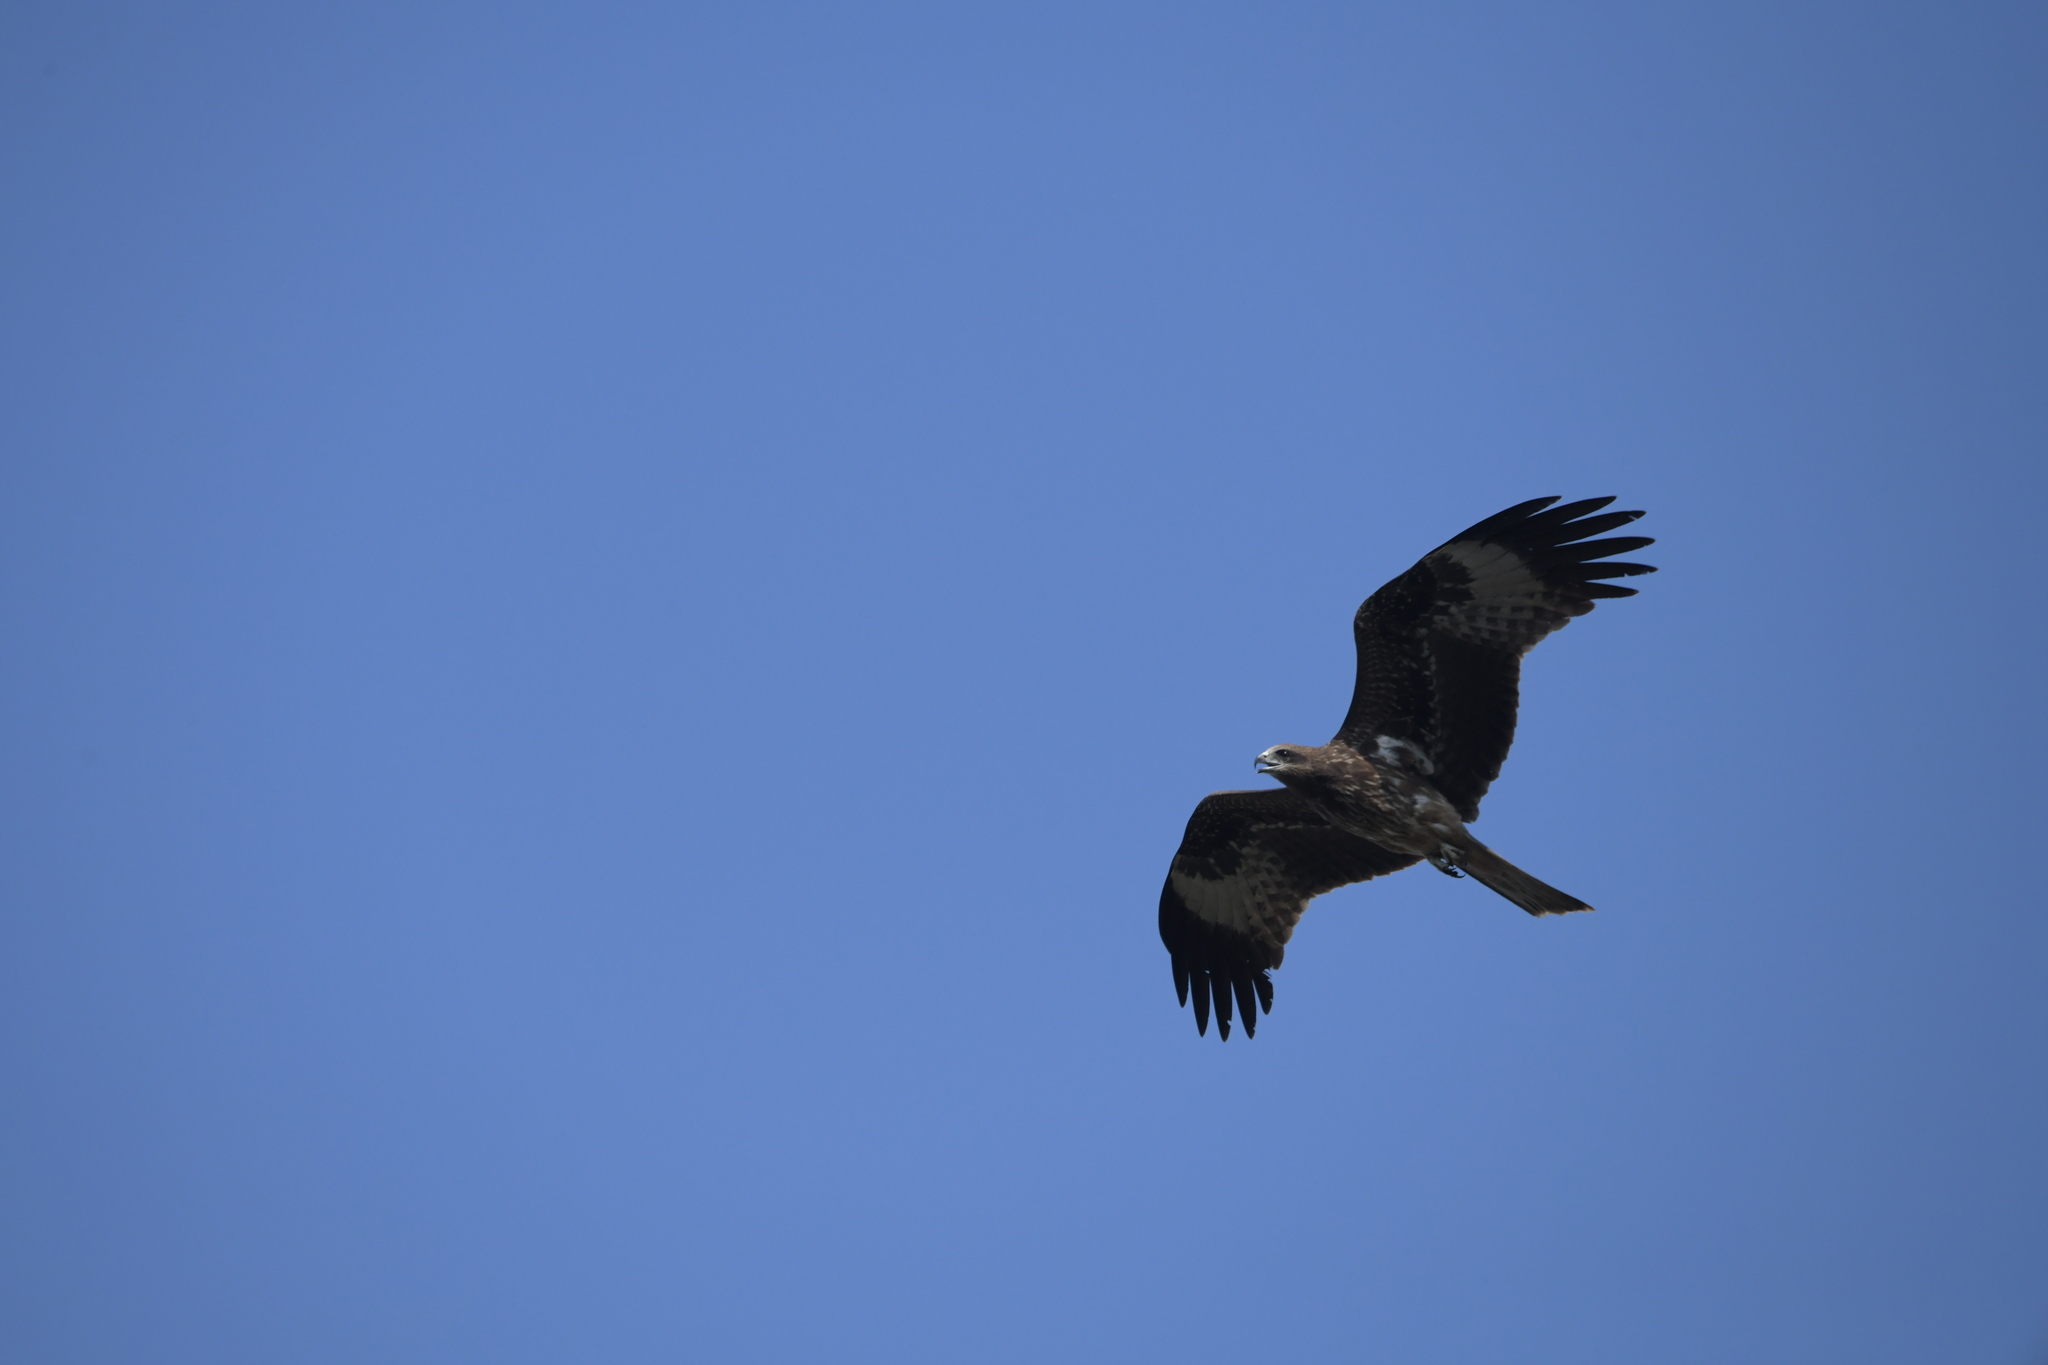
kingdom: Animalia
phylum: Chordata
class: Aves
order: Accipitriformes
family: Accipitridae
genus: Milvus
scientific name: Milvus migrans
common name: Black kite
